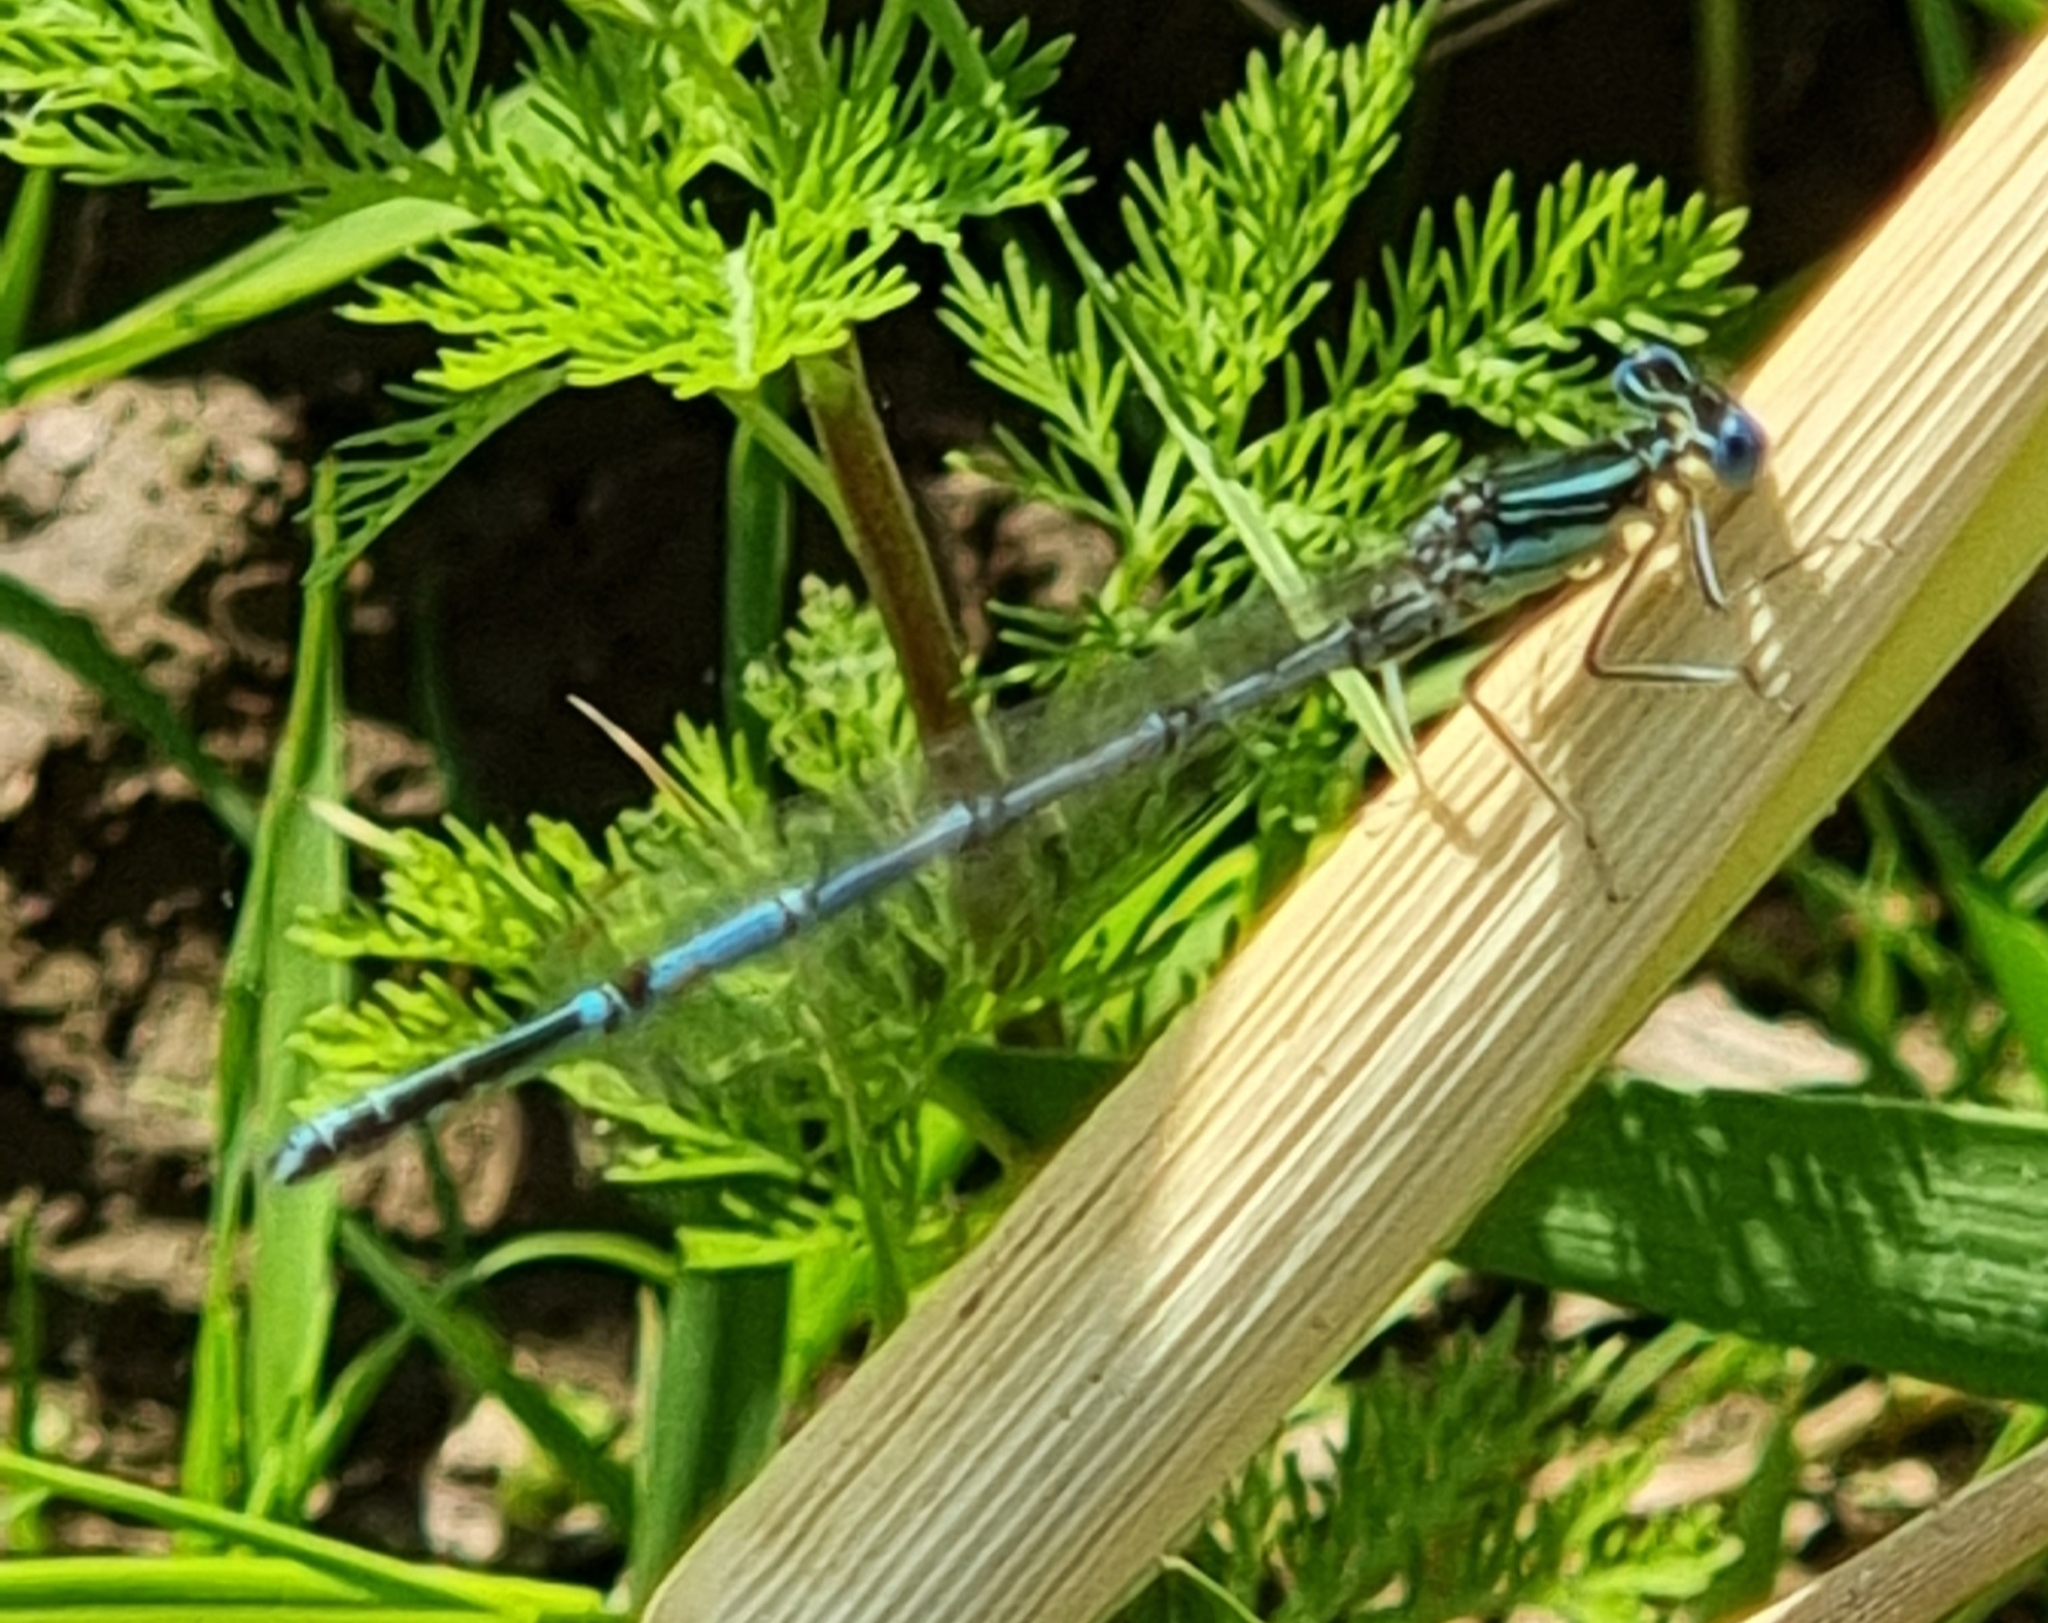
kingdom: Animalia
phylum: Arthropoda
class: Insecta
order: Odonata
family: Platycnemididae
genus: Platycnemis
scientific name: Platycnemis pennipes
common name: White-legged damselfly
